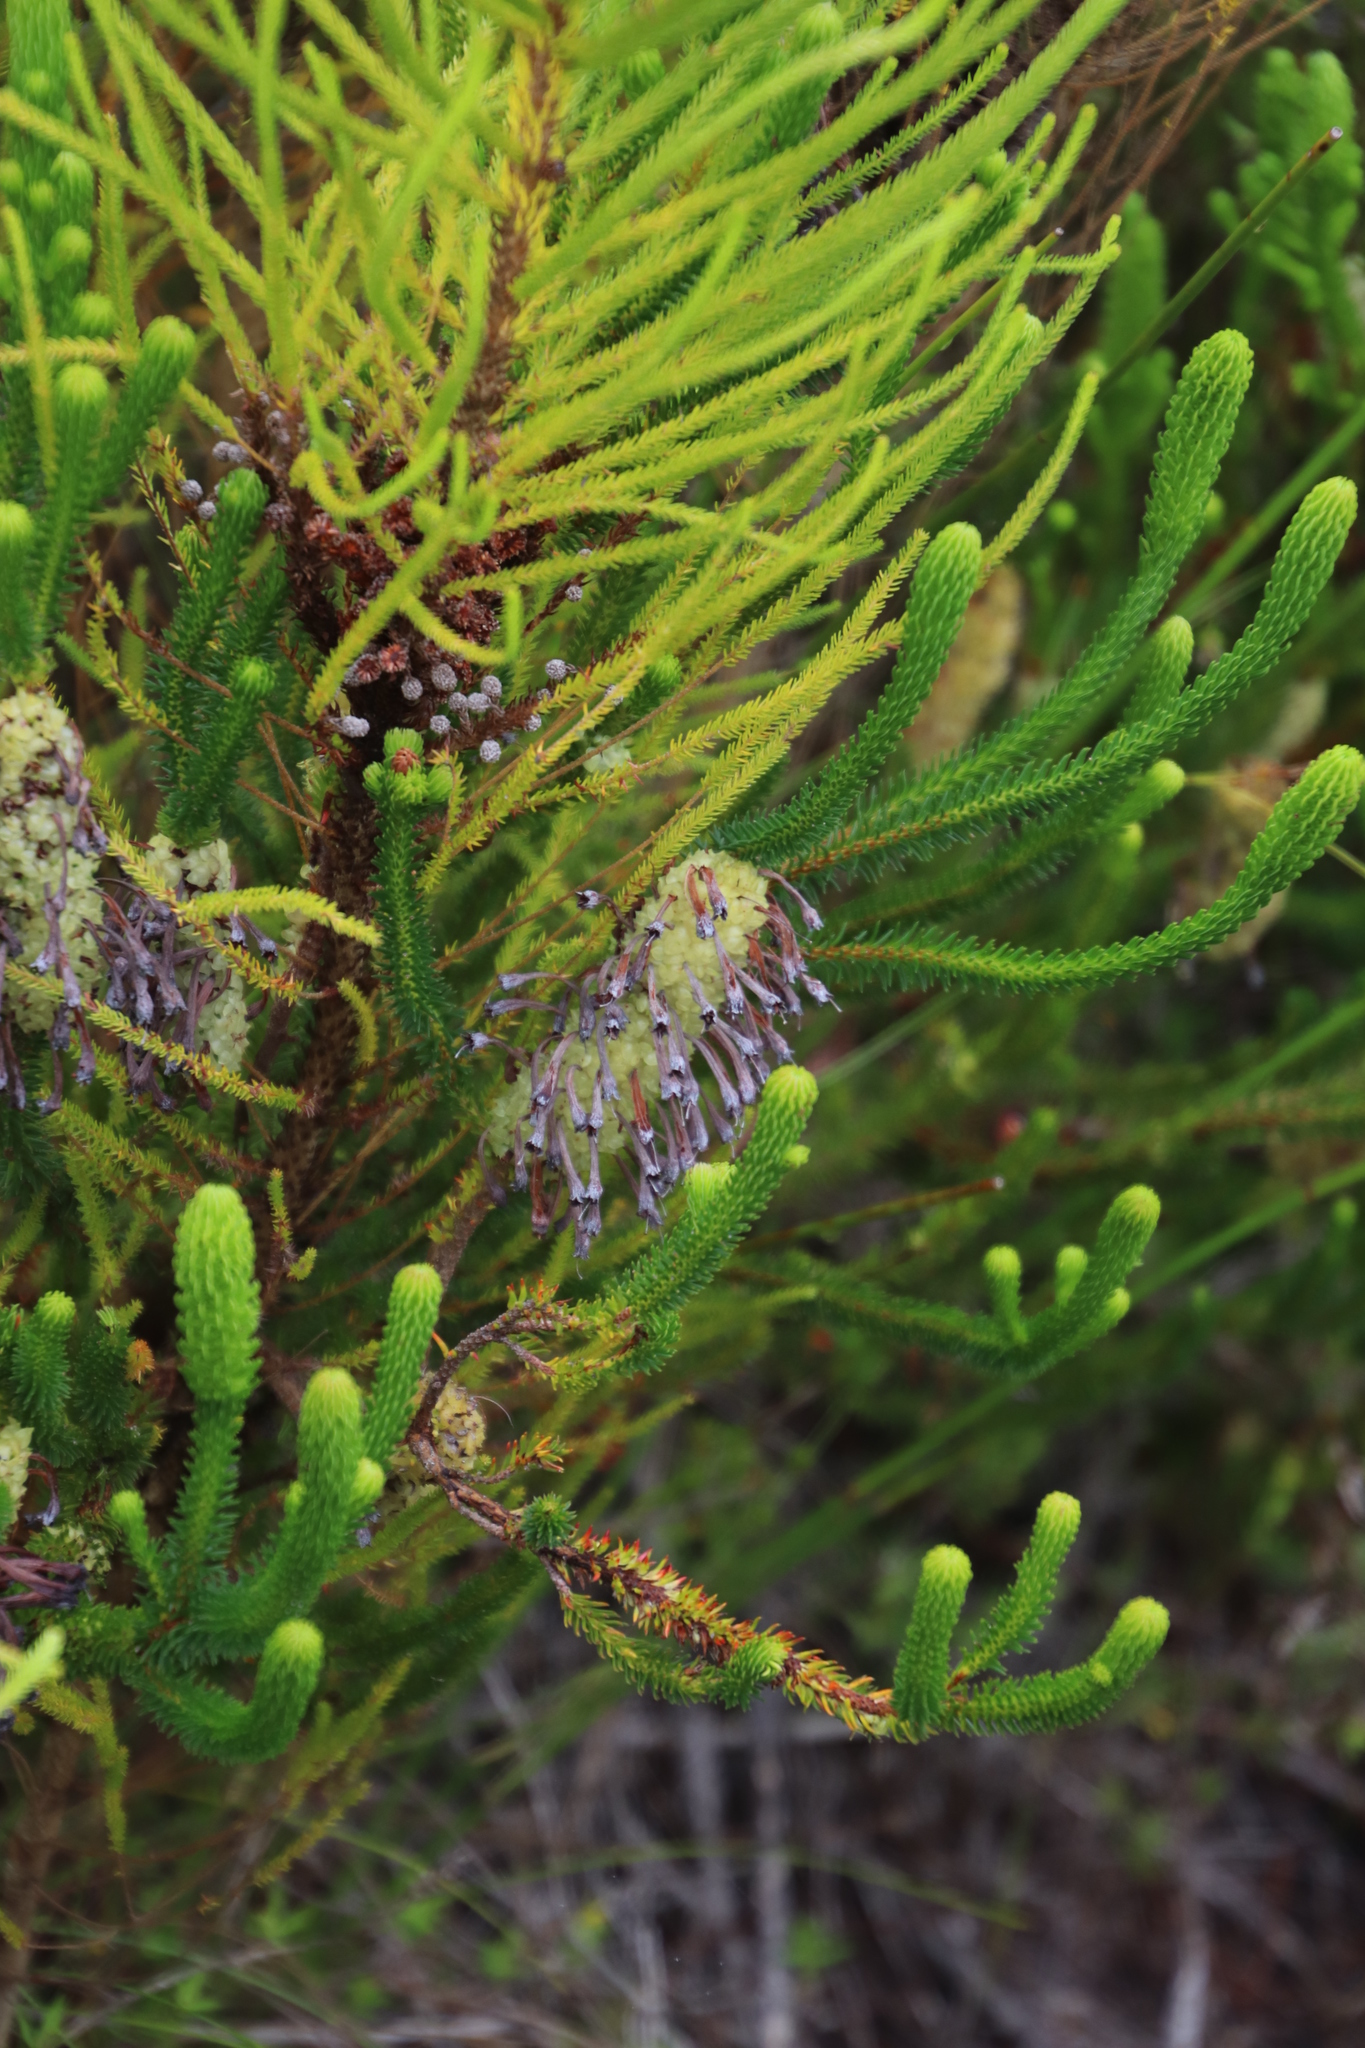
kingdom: Plantae
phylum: Tracheophyta
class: Magnoliopsida
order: Ericales
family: Ericaceae
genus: Erica
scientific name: Erica sessiliflora
